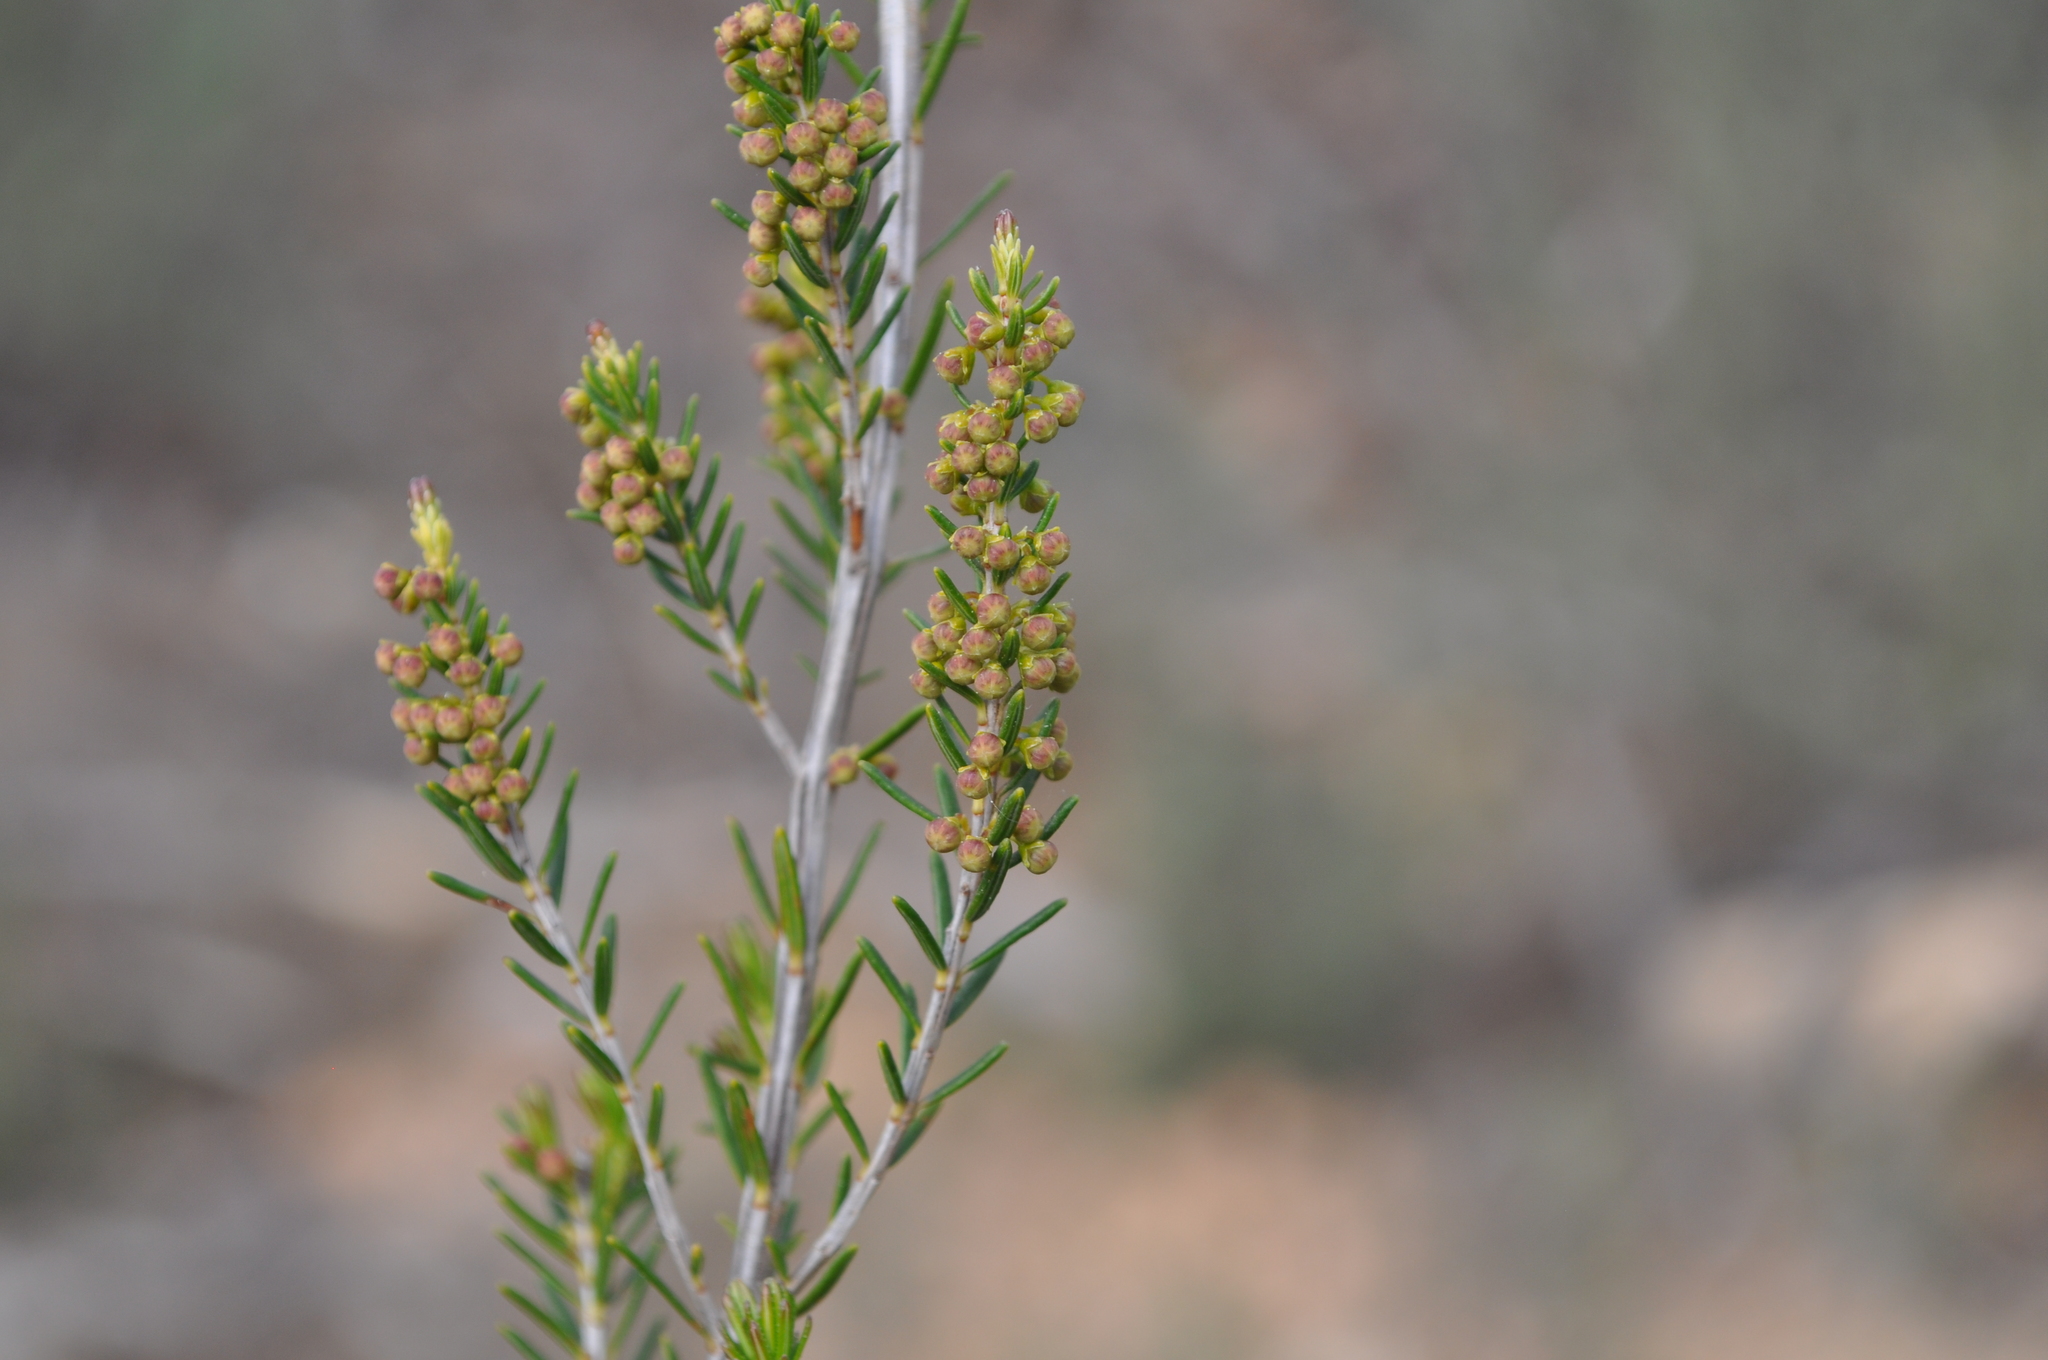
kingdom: Plantae
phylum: Tracheophyta
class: Magnoliopsida
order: Ericales
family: Ericaceae
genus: Erica
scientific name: Erica scoparia
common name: Green heather
